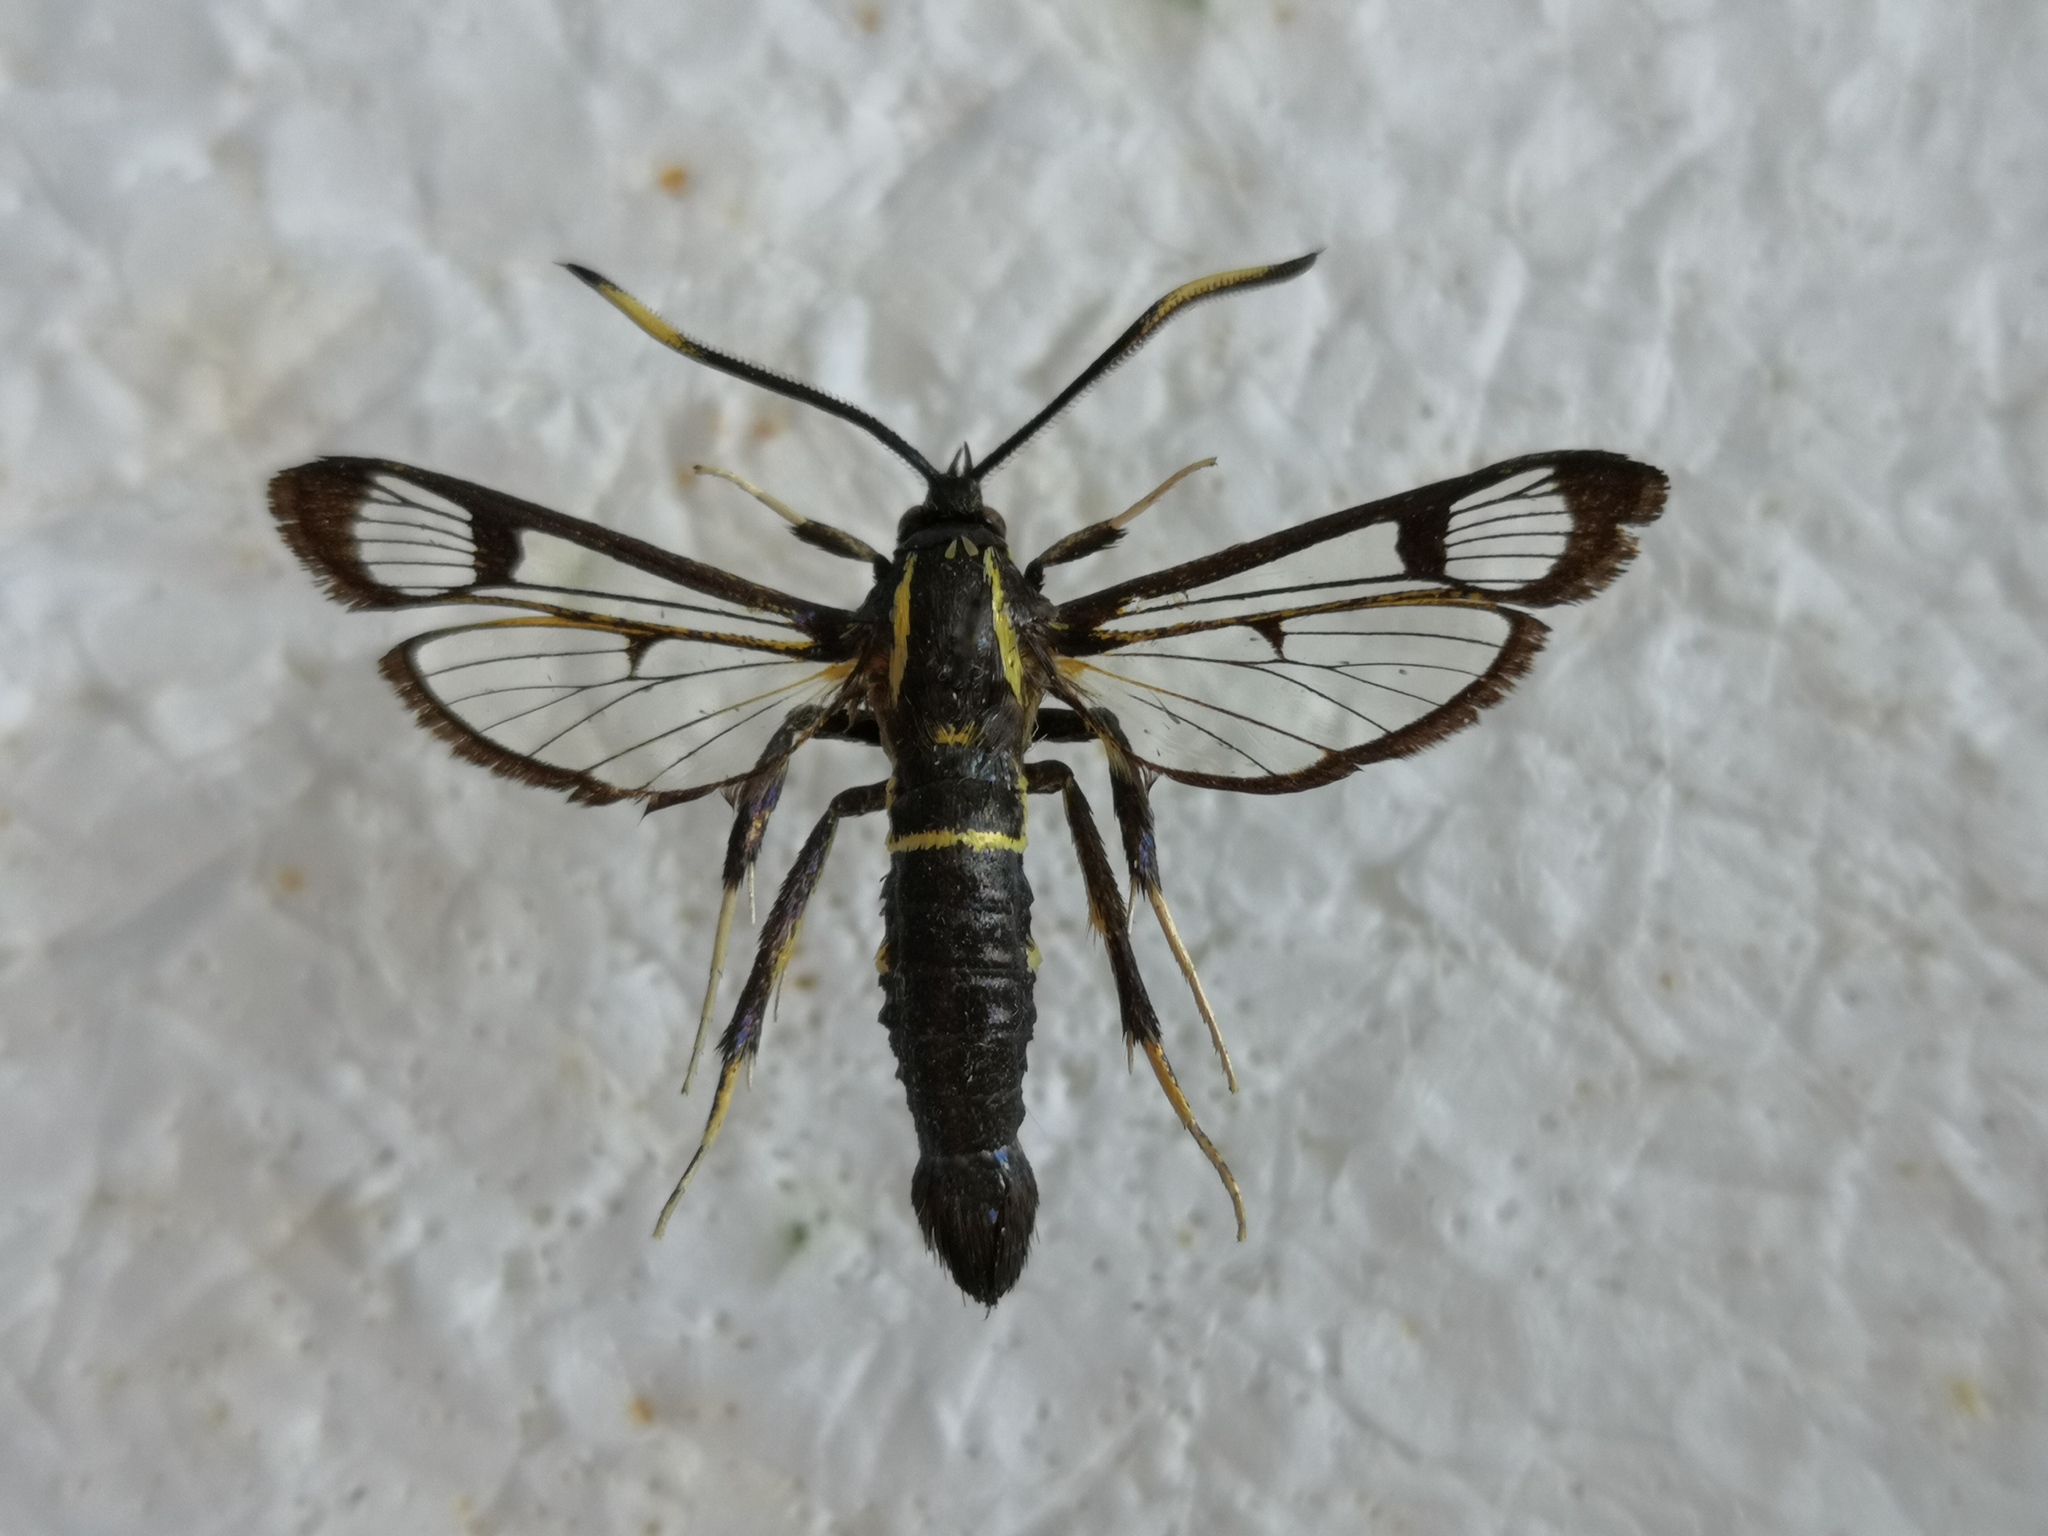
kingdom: Animalia
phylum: Arthropoda
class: Insecta
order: Lepidoptera
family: Sesiidae
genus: Synanthedon
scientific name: Synanthedon spheciformis
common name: White-barred clearwing
